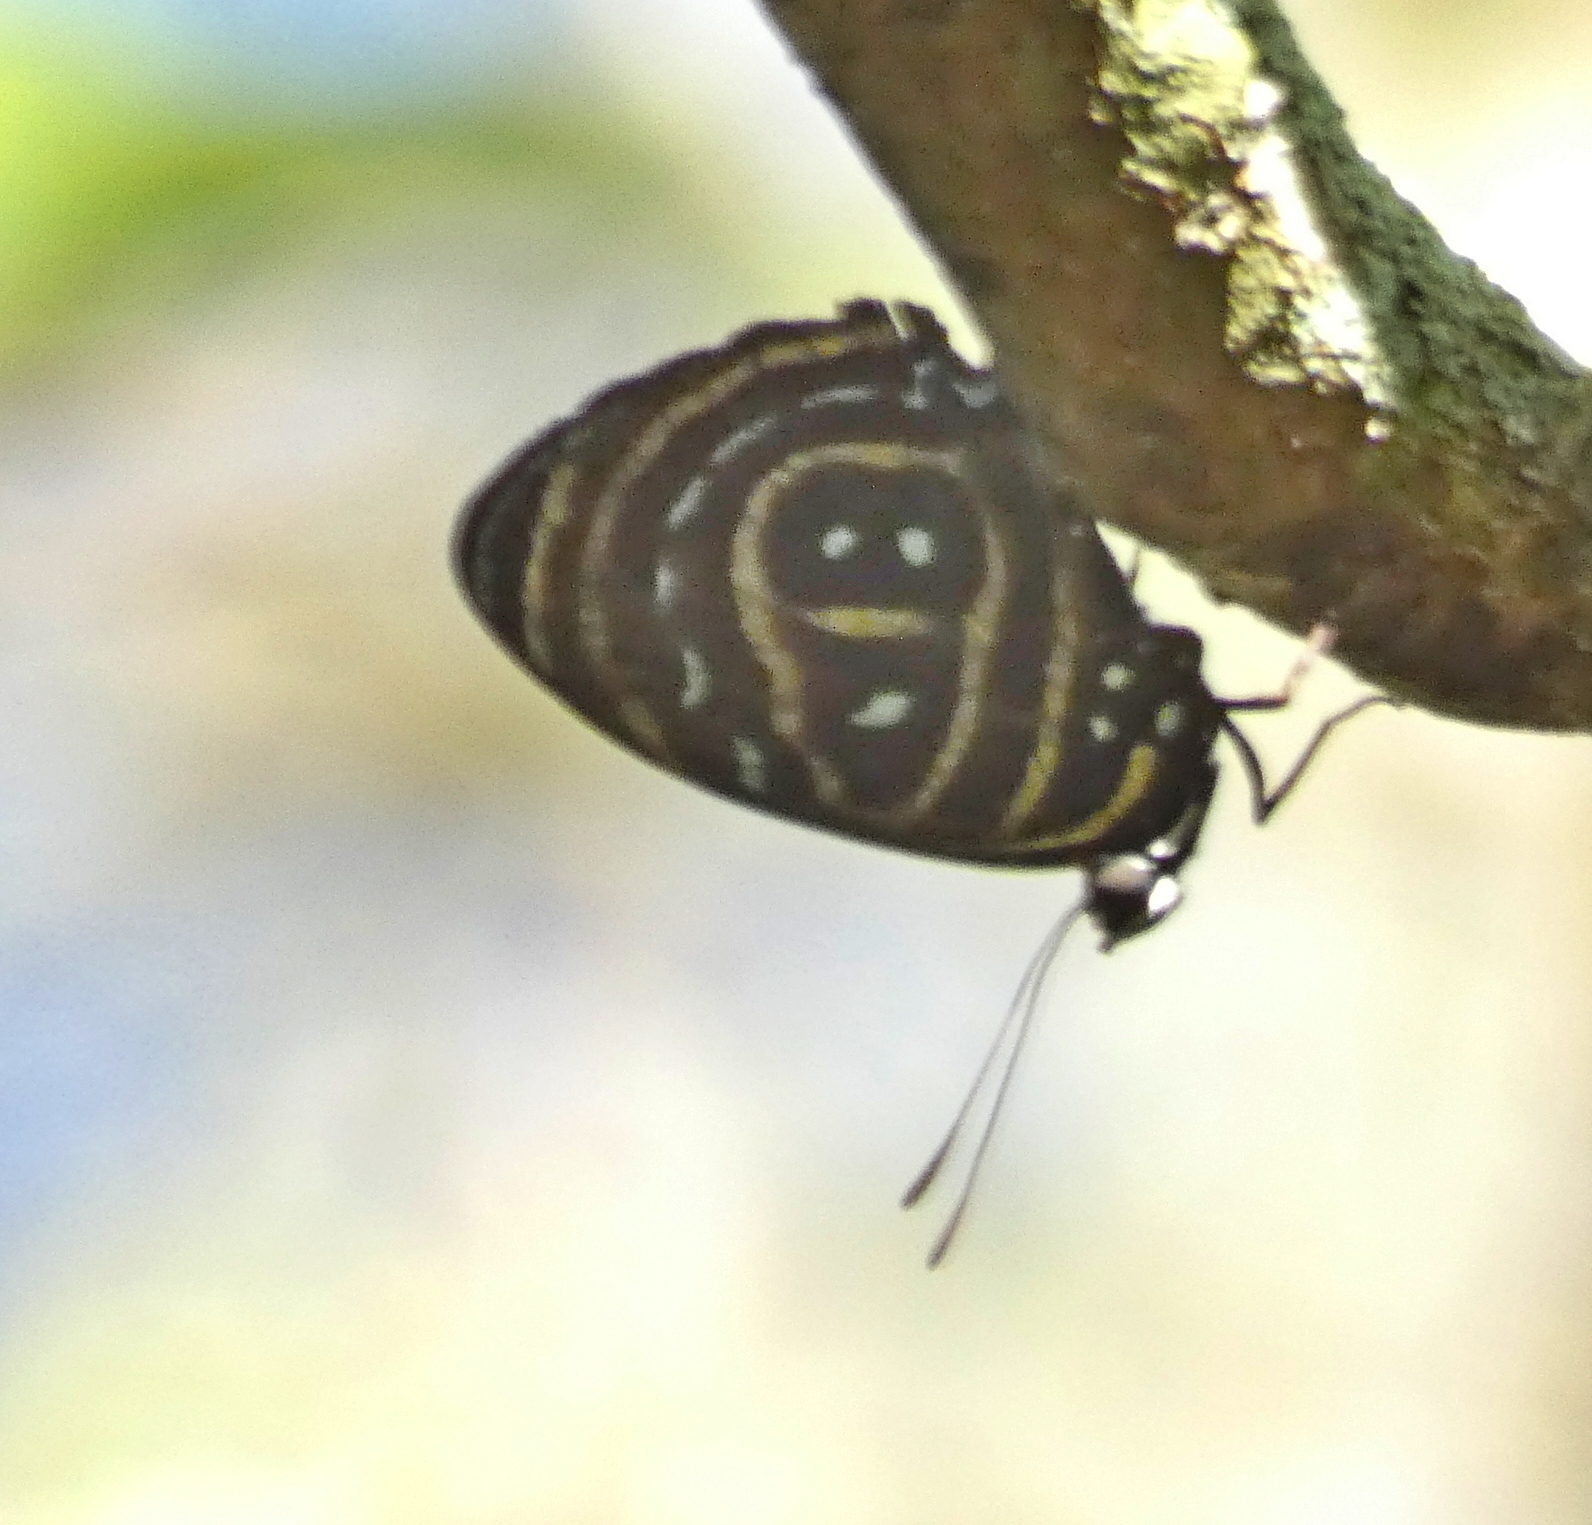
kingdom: Animalia
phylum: Arthropoda
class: Insecta
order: Lepidoptera
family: Nymphalidae
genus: Catagramma
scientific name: Catagramma astarte
